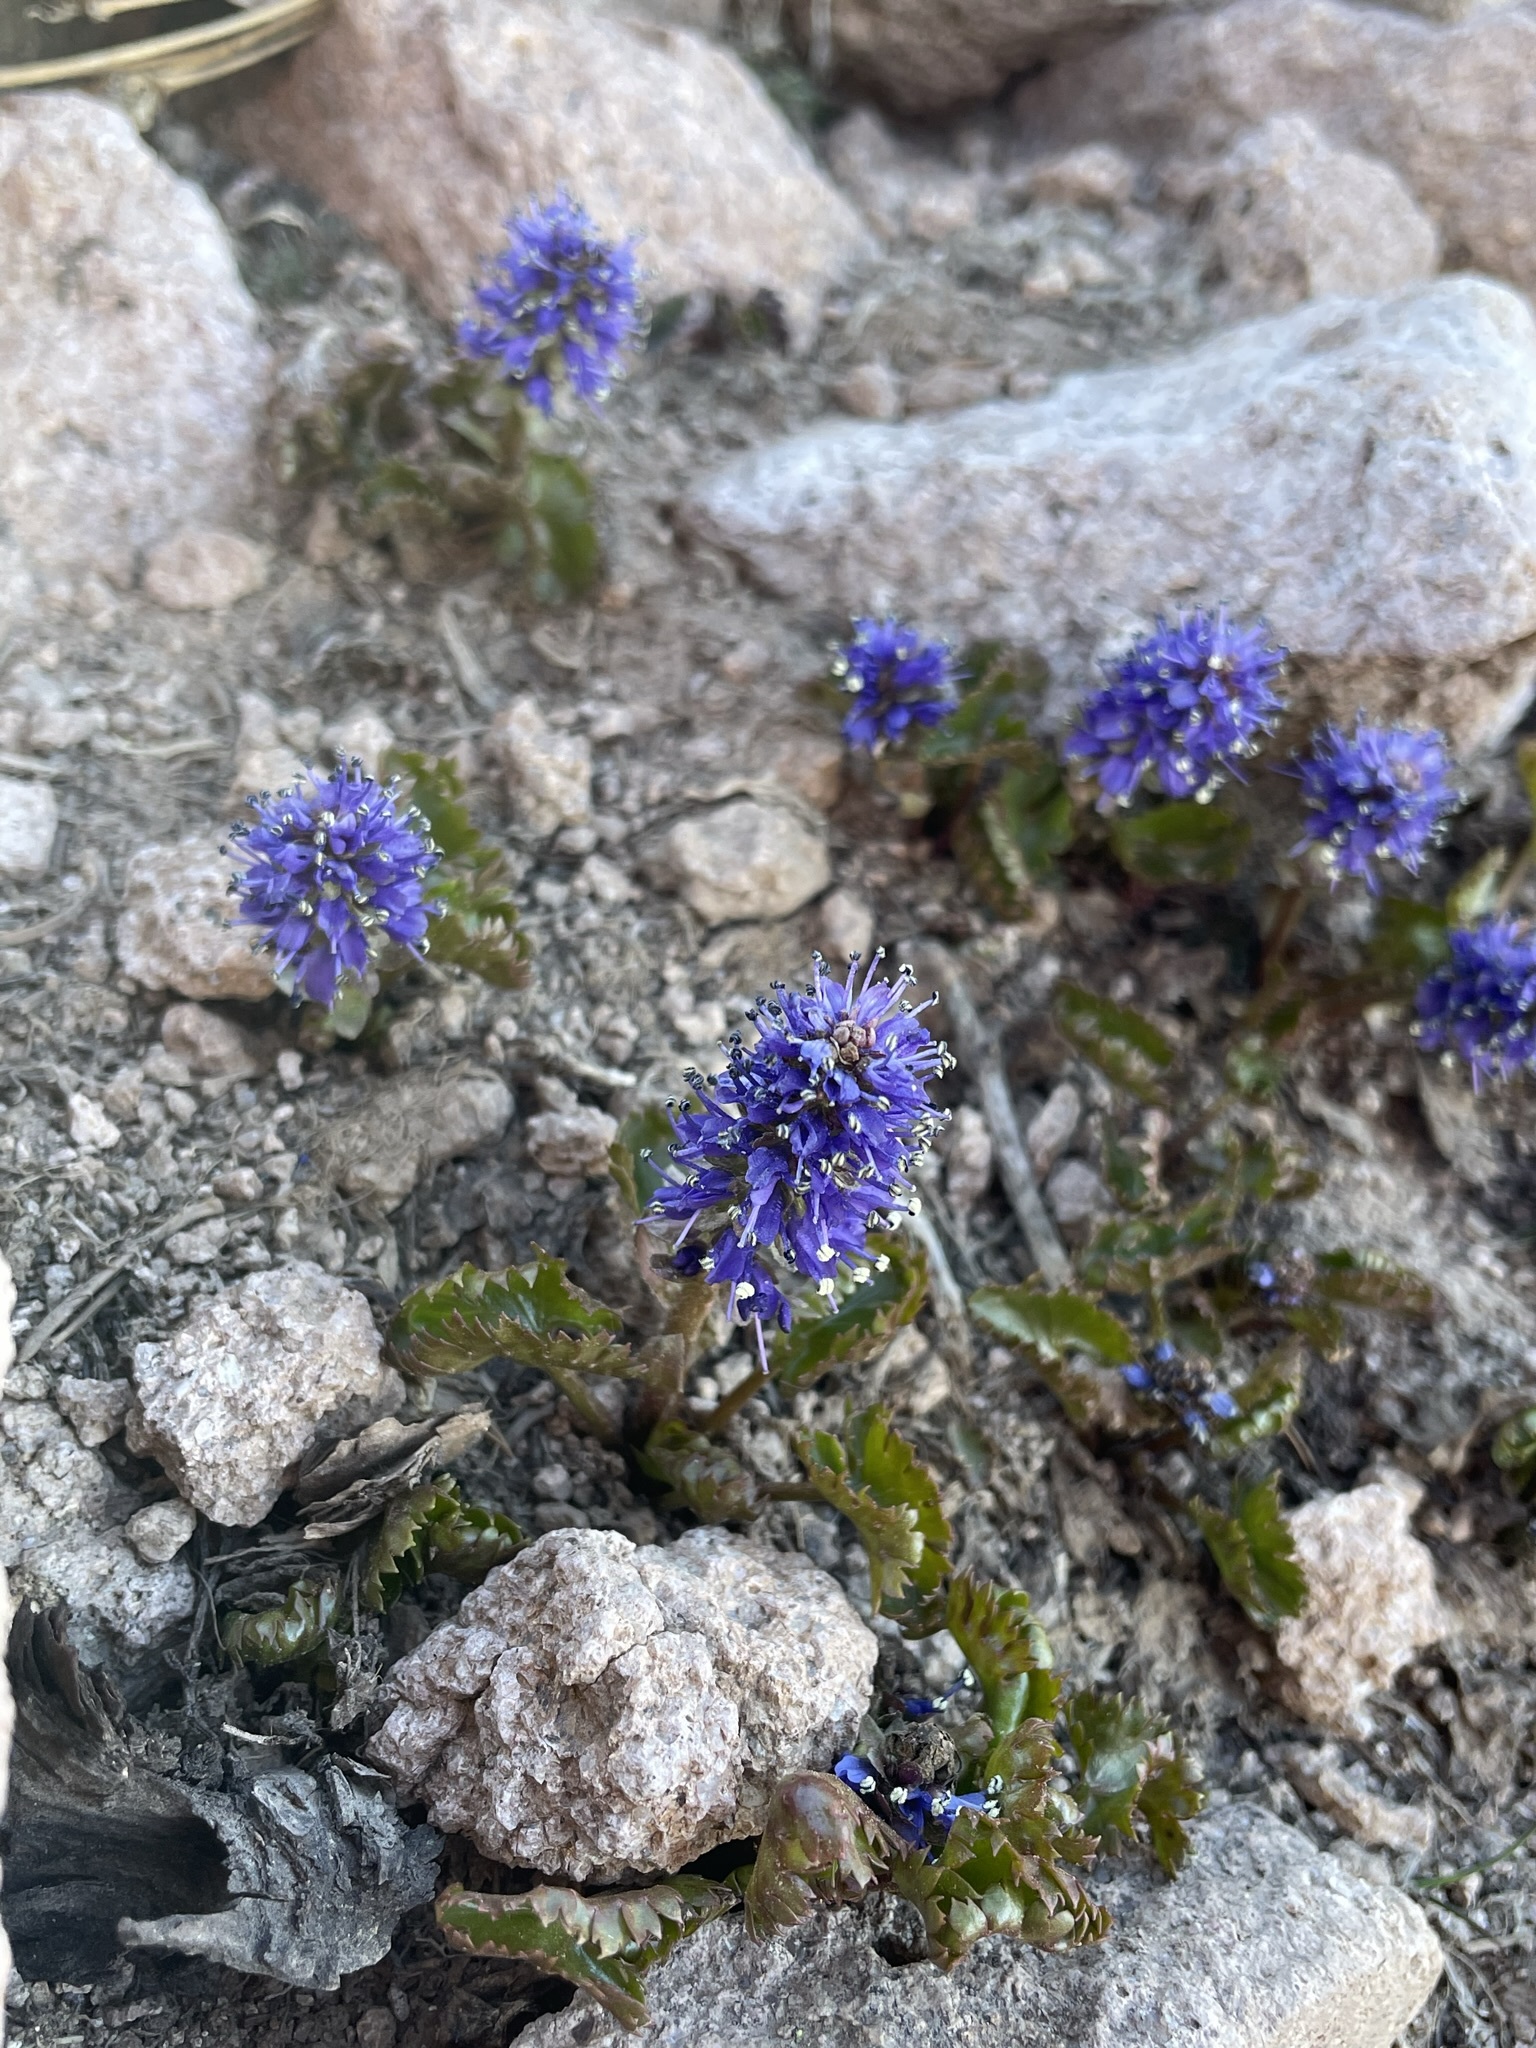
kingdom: Plantae
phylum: Tracheophyta
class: Magnoliopsida
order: Lamiales
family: Plantaginaceae
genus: Synthyris
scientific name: Synthyris laciniata
